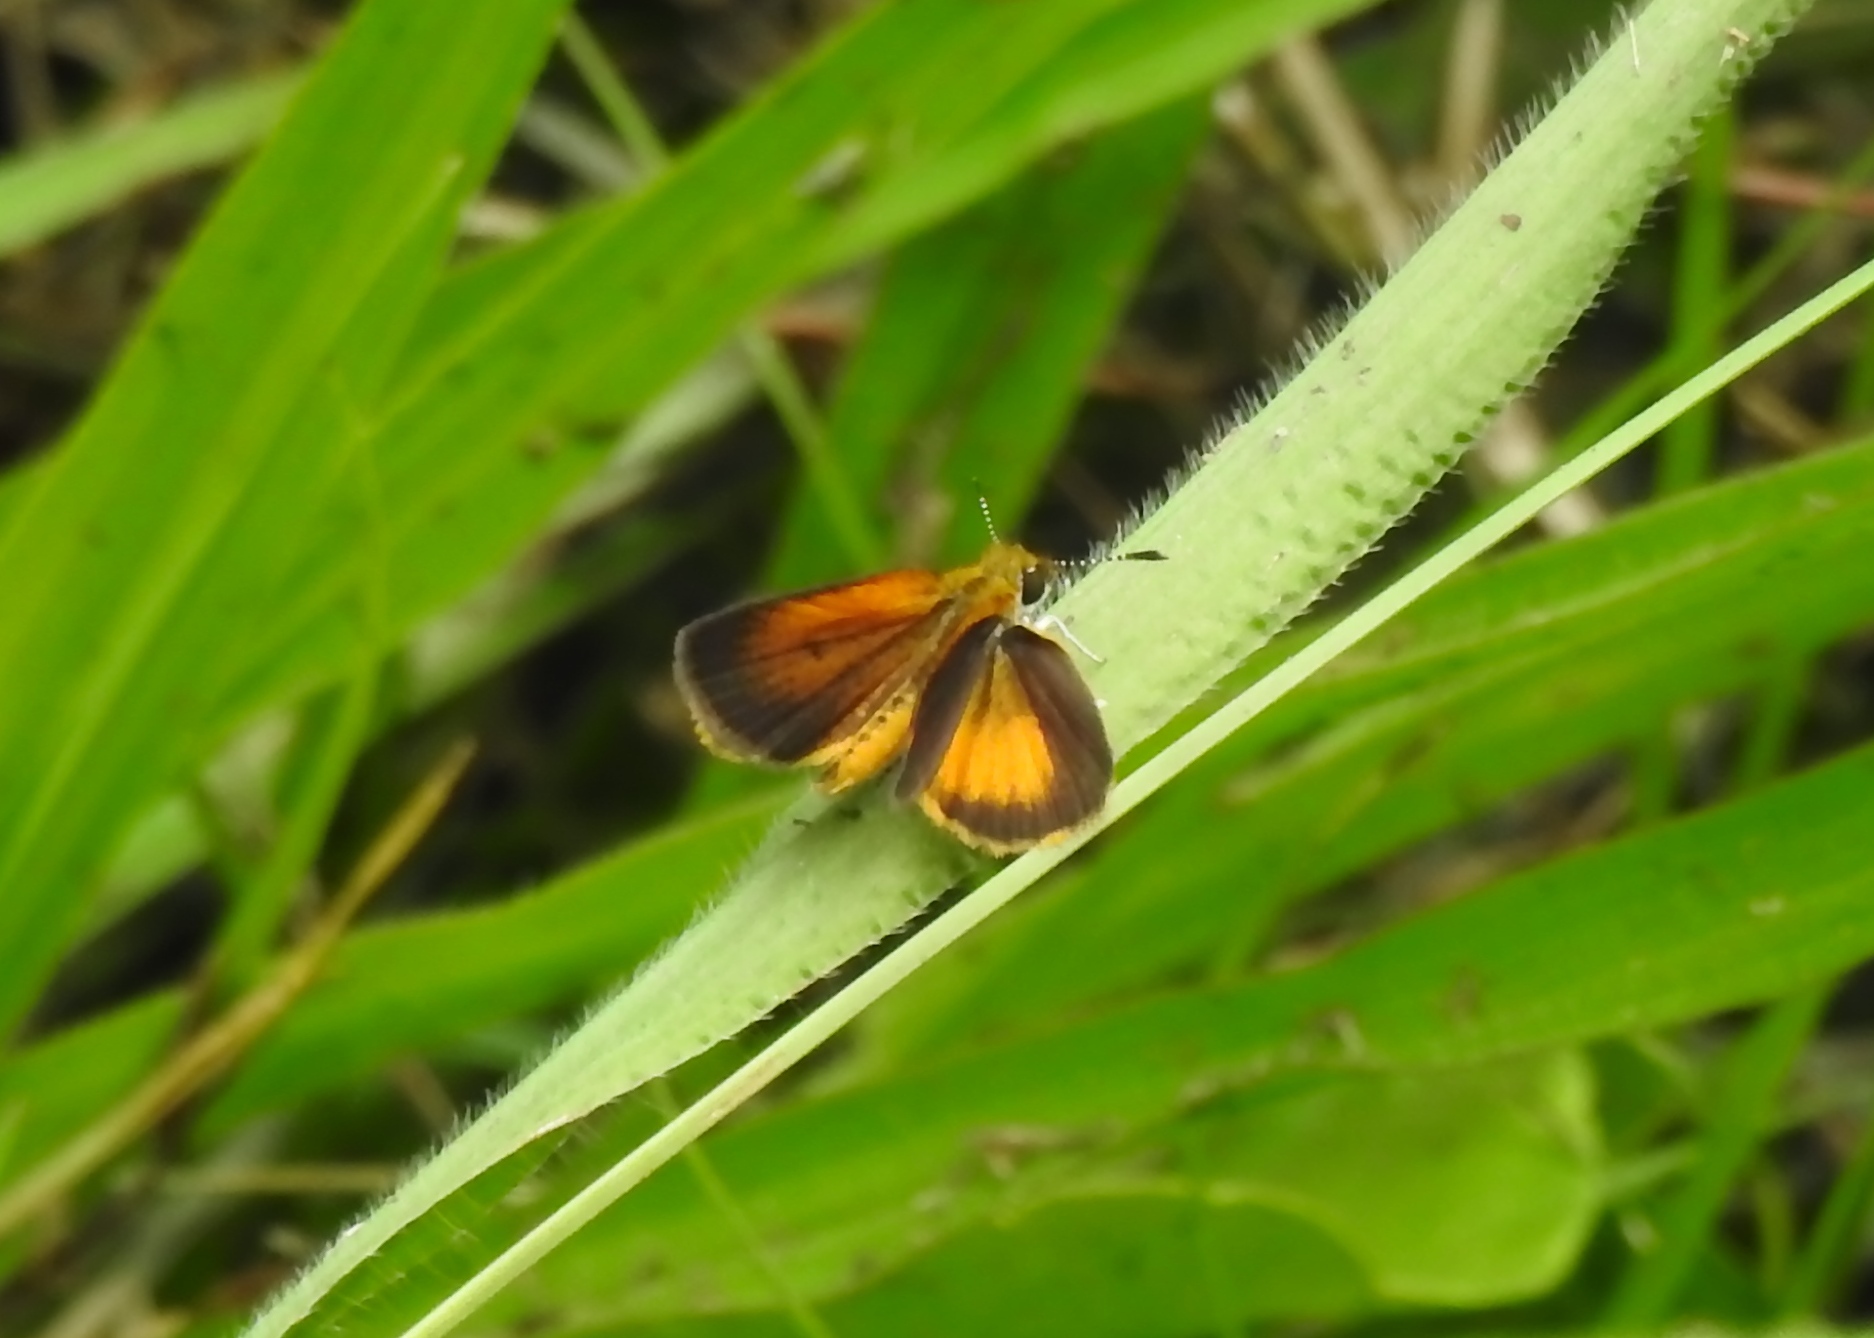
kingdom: Animalia
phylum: Arthropoda
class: Insecta
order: Lepidoptera
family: Hesperiidae
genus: Ancyloxypha
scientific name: Ancyloxypha numitor
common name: Least skipper
